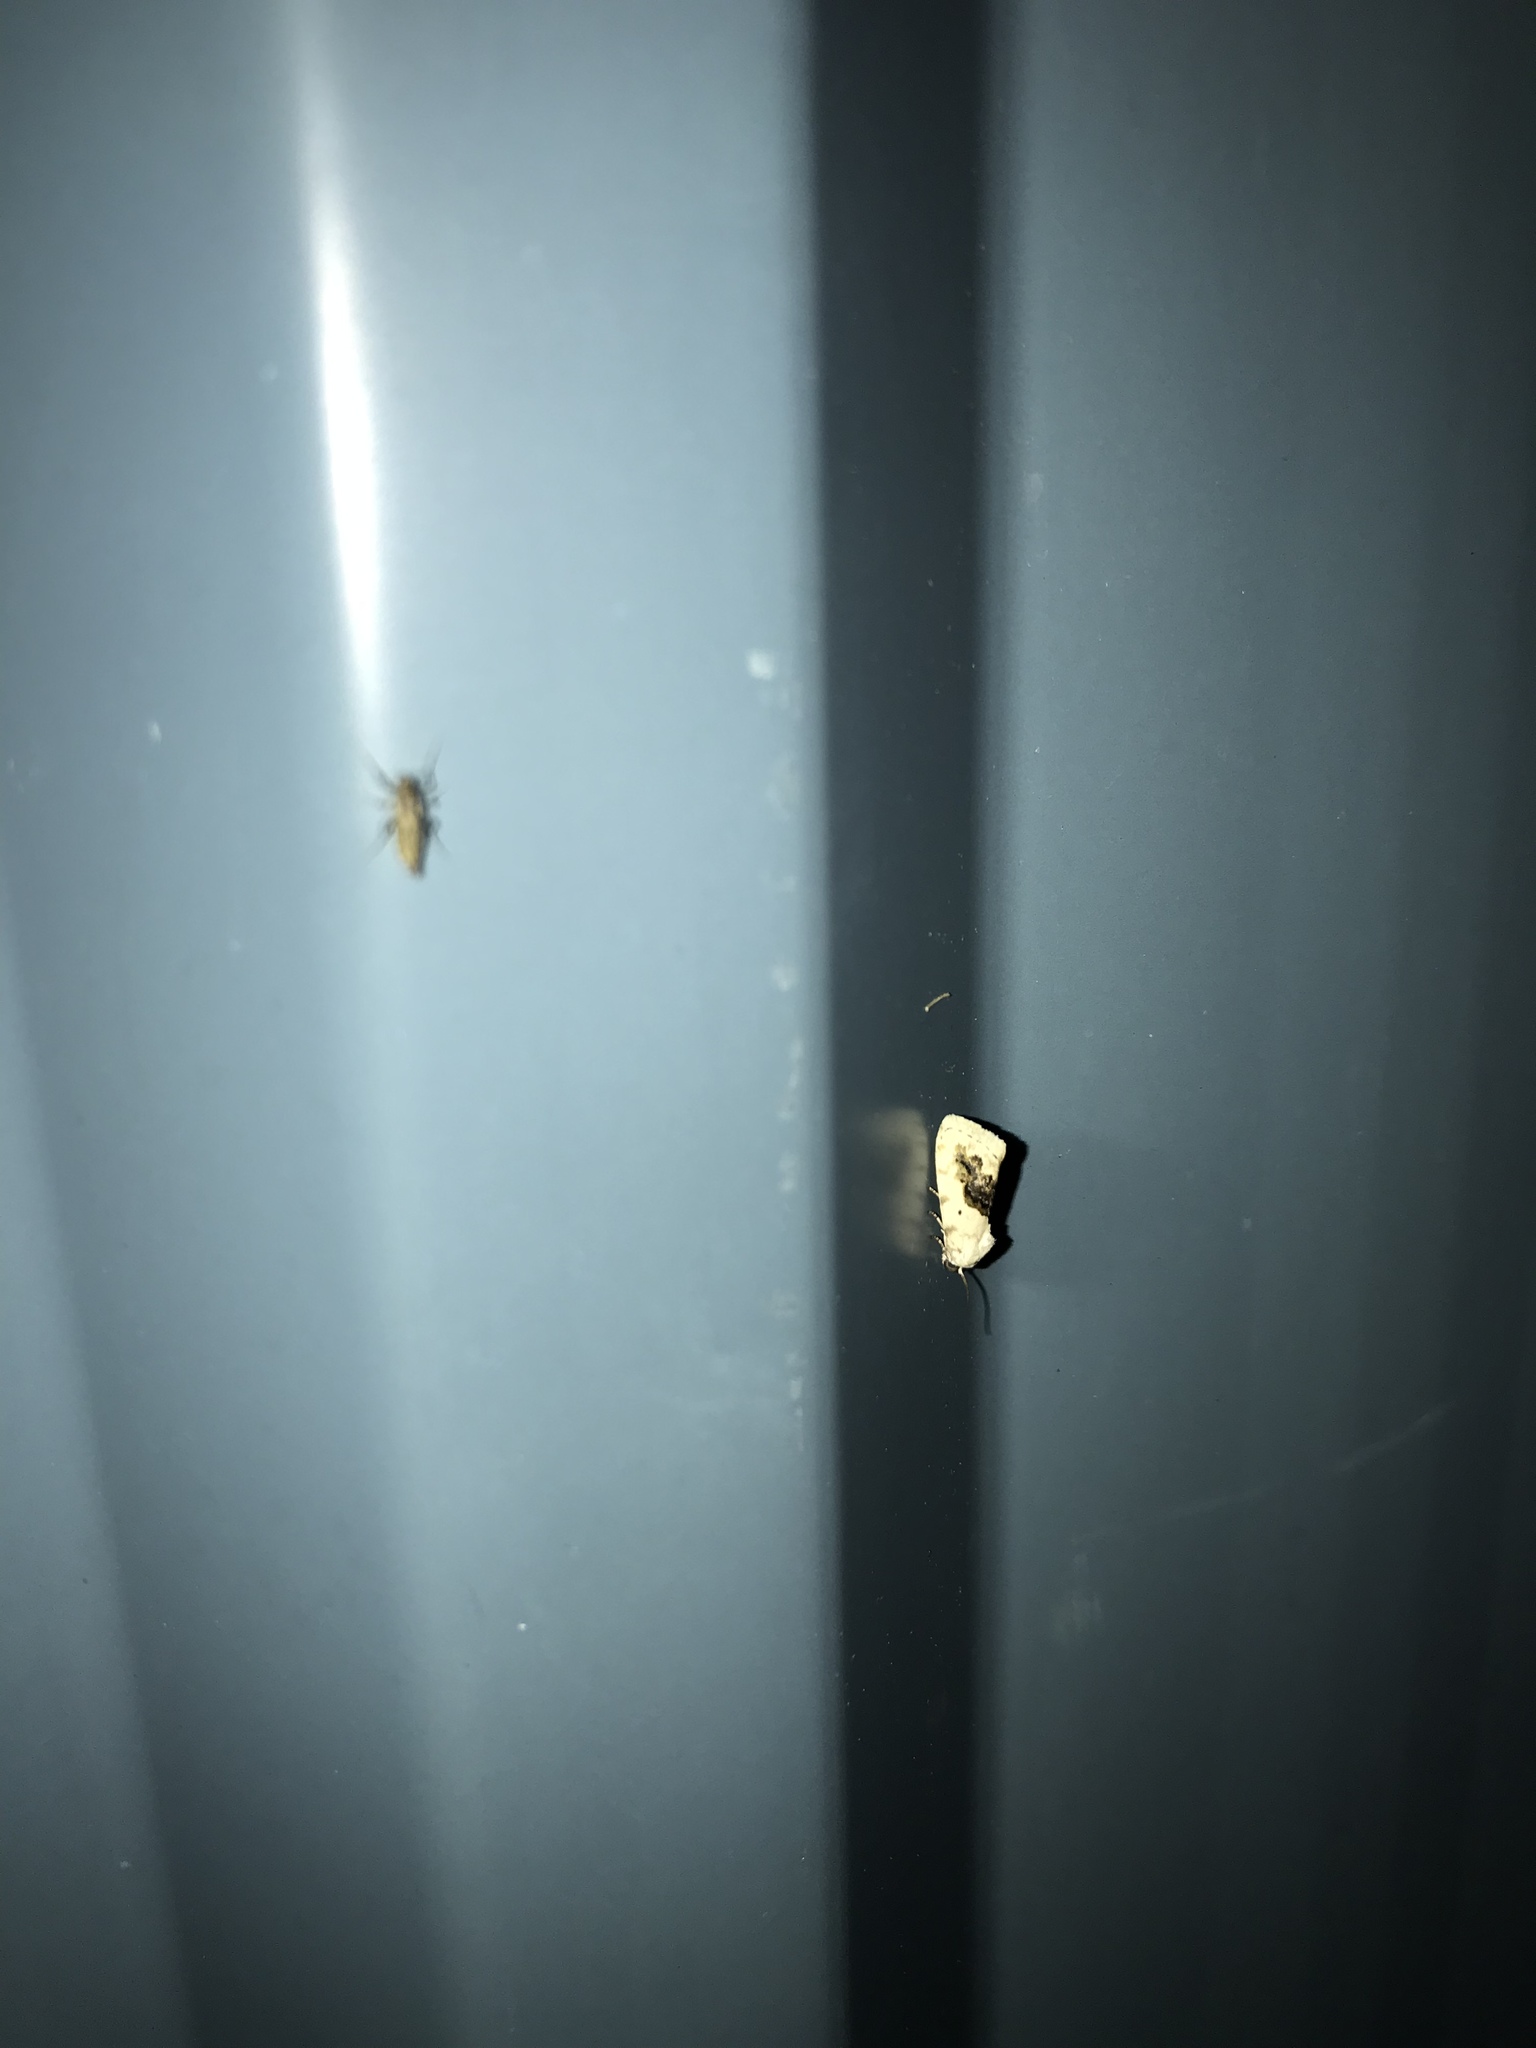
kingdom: Animalia
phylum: Arthropoda
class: Insecta
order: Lepidoptera
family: Noctuidae
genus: Acontia
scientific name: Acontia erastrioides
